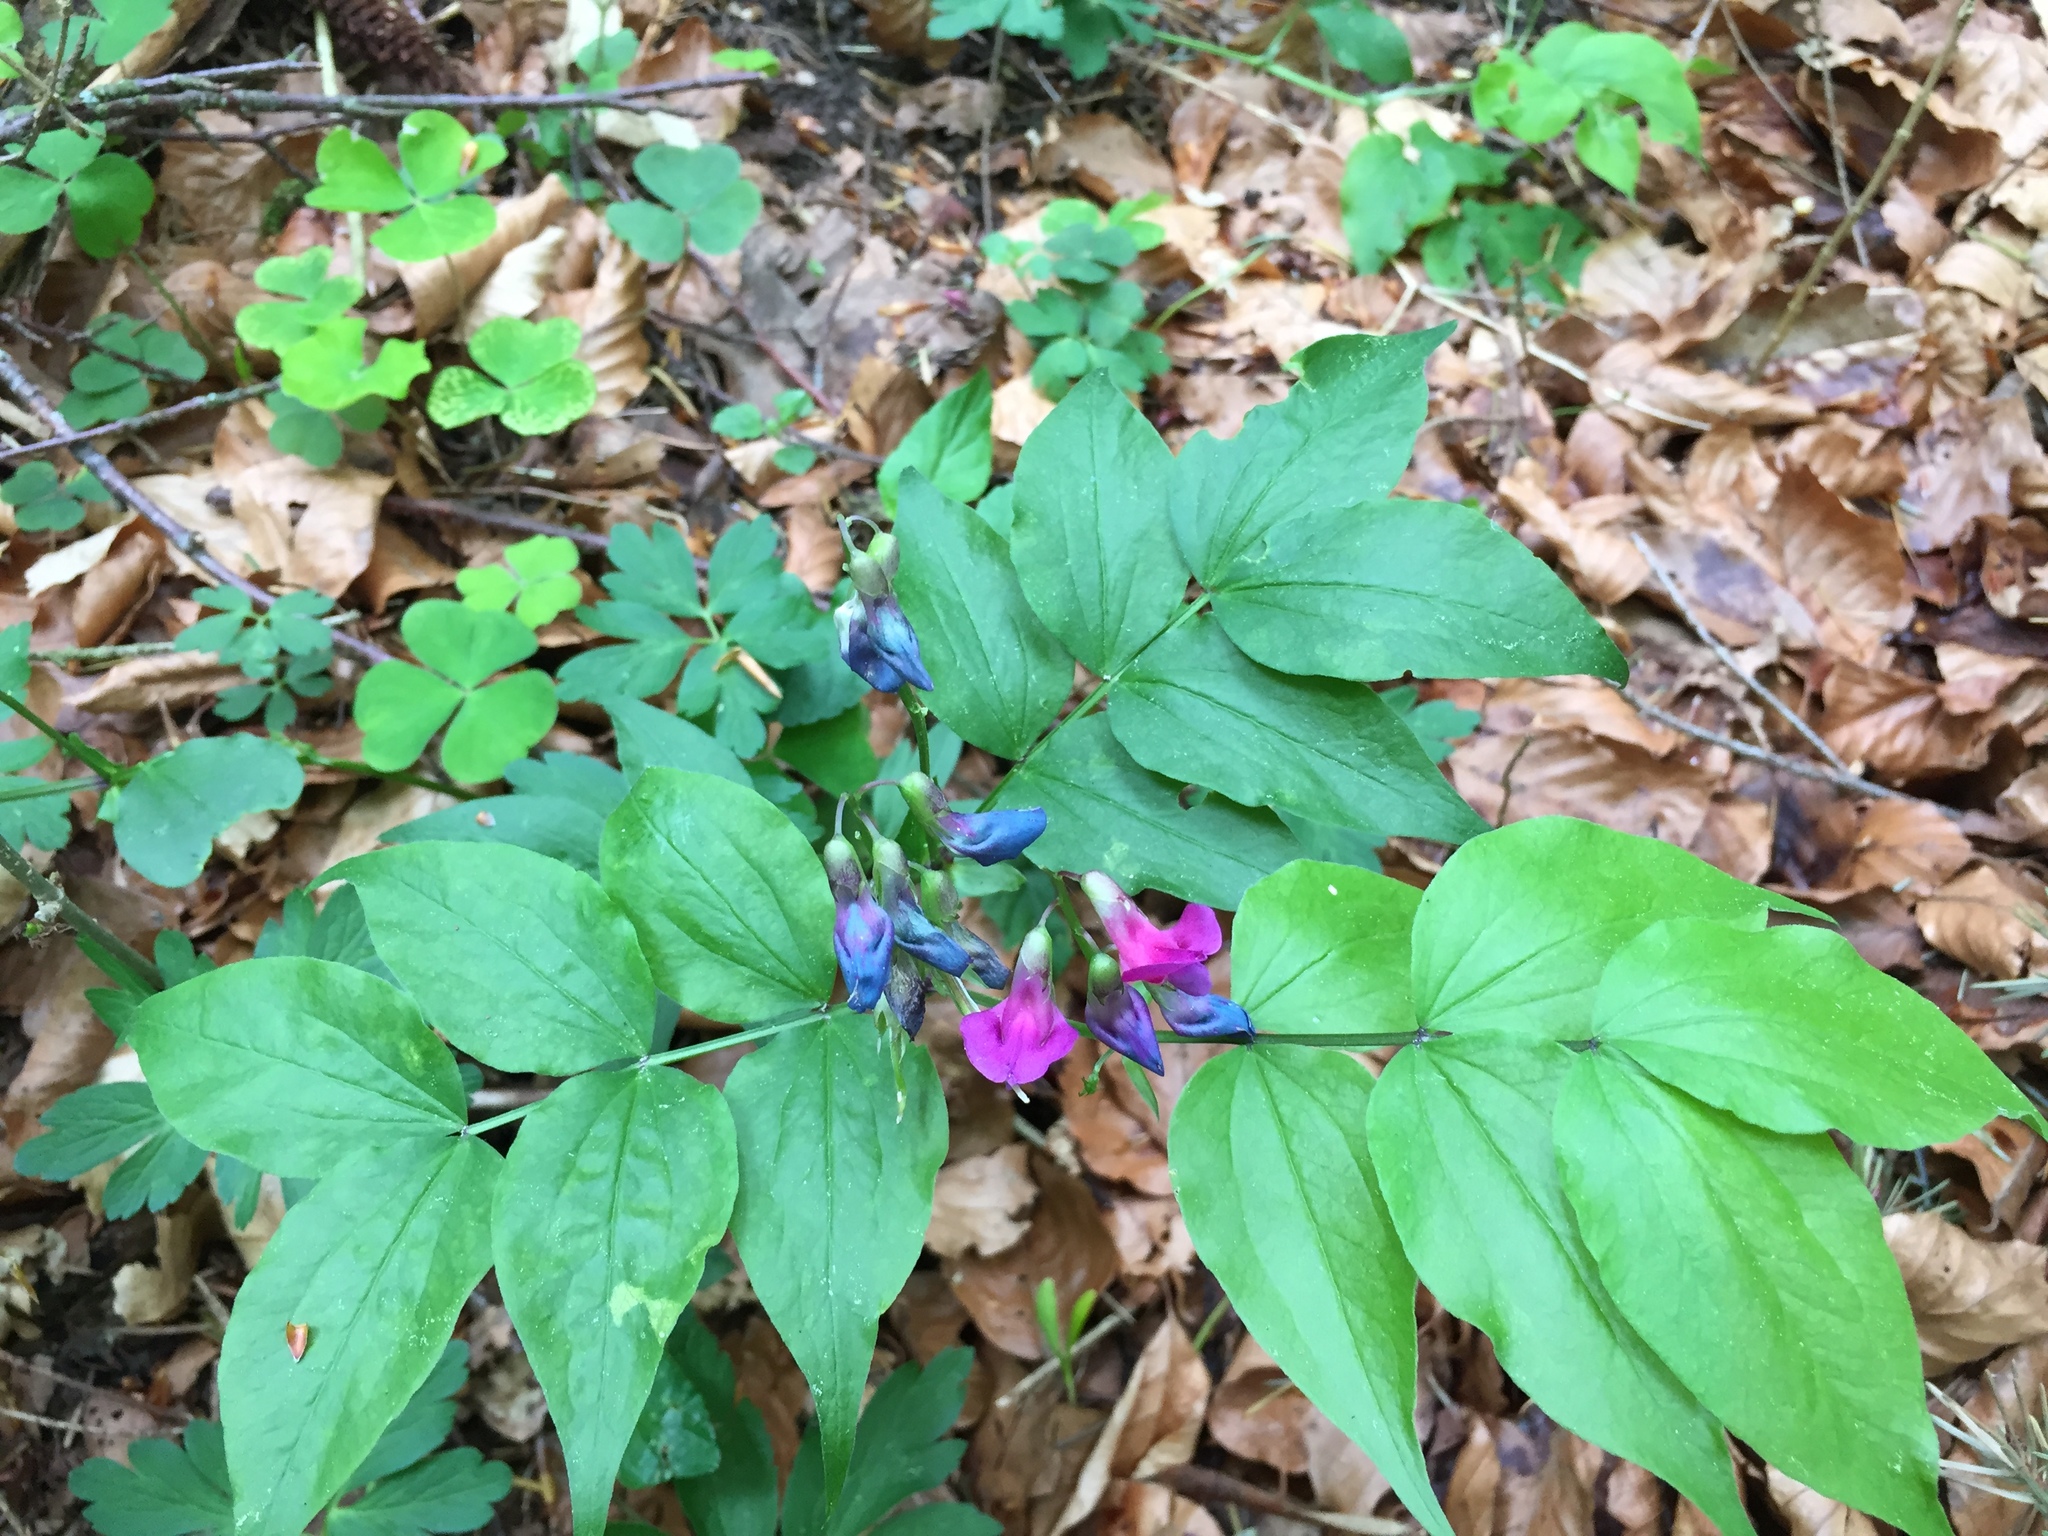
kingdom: Plantae
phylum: Tracheophyta
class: Magnoliopsida
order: Fabales
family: Fabaceae
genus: Lathyrus
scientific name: Lathyrus vernus
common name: Spring pea
